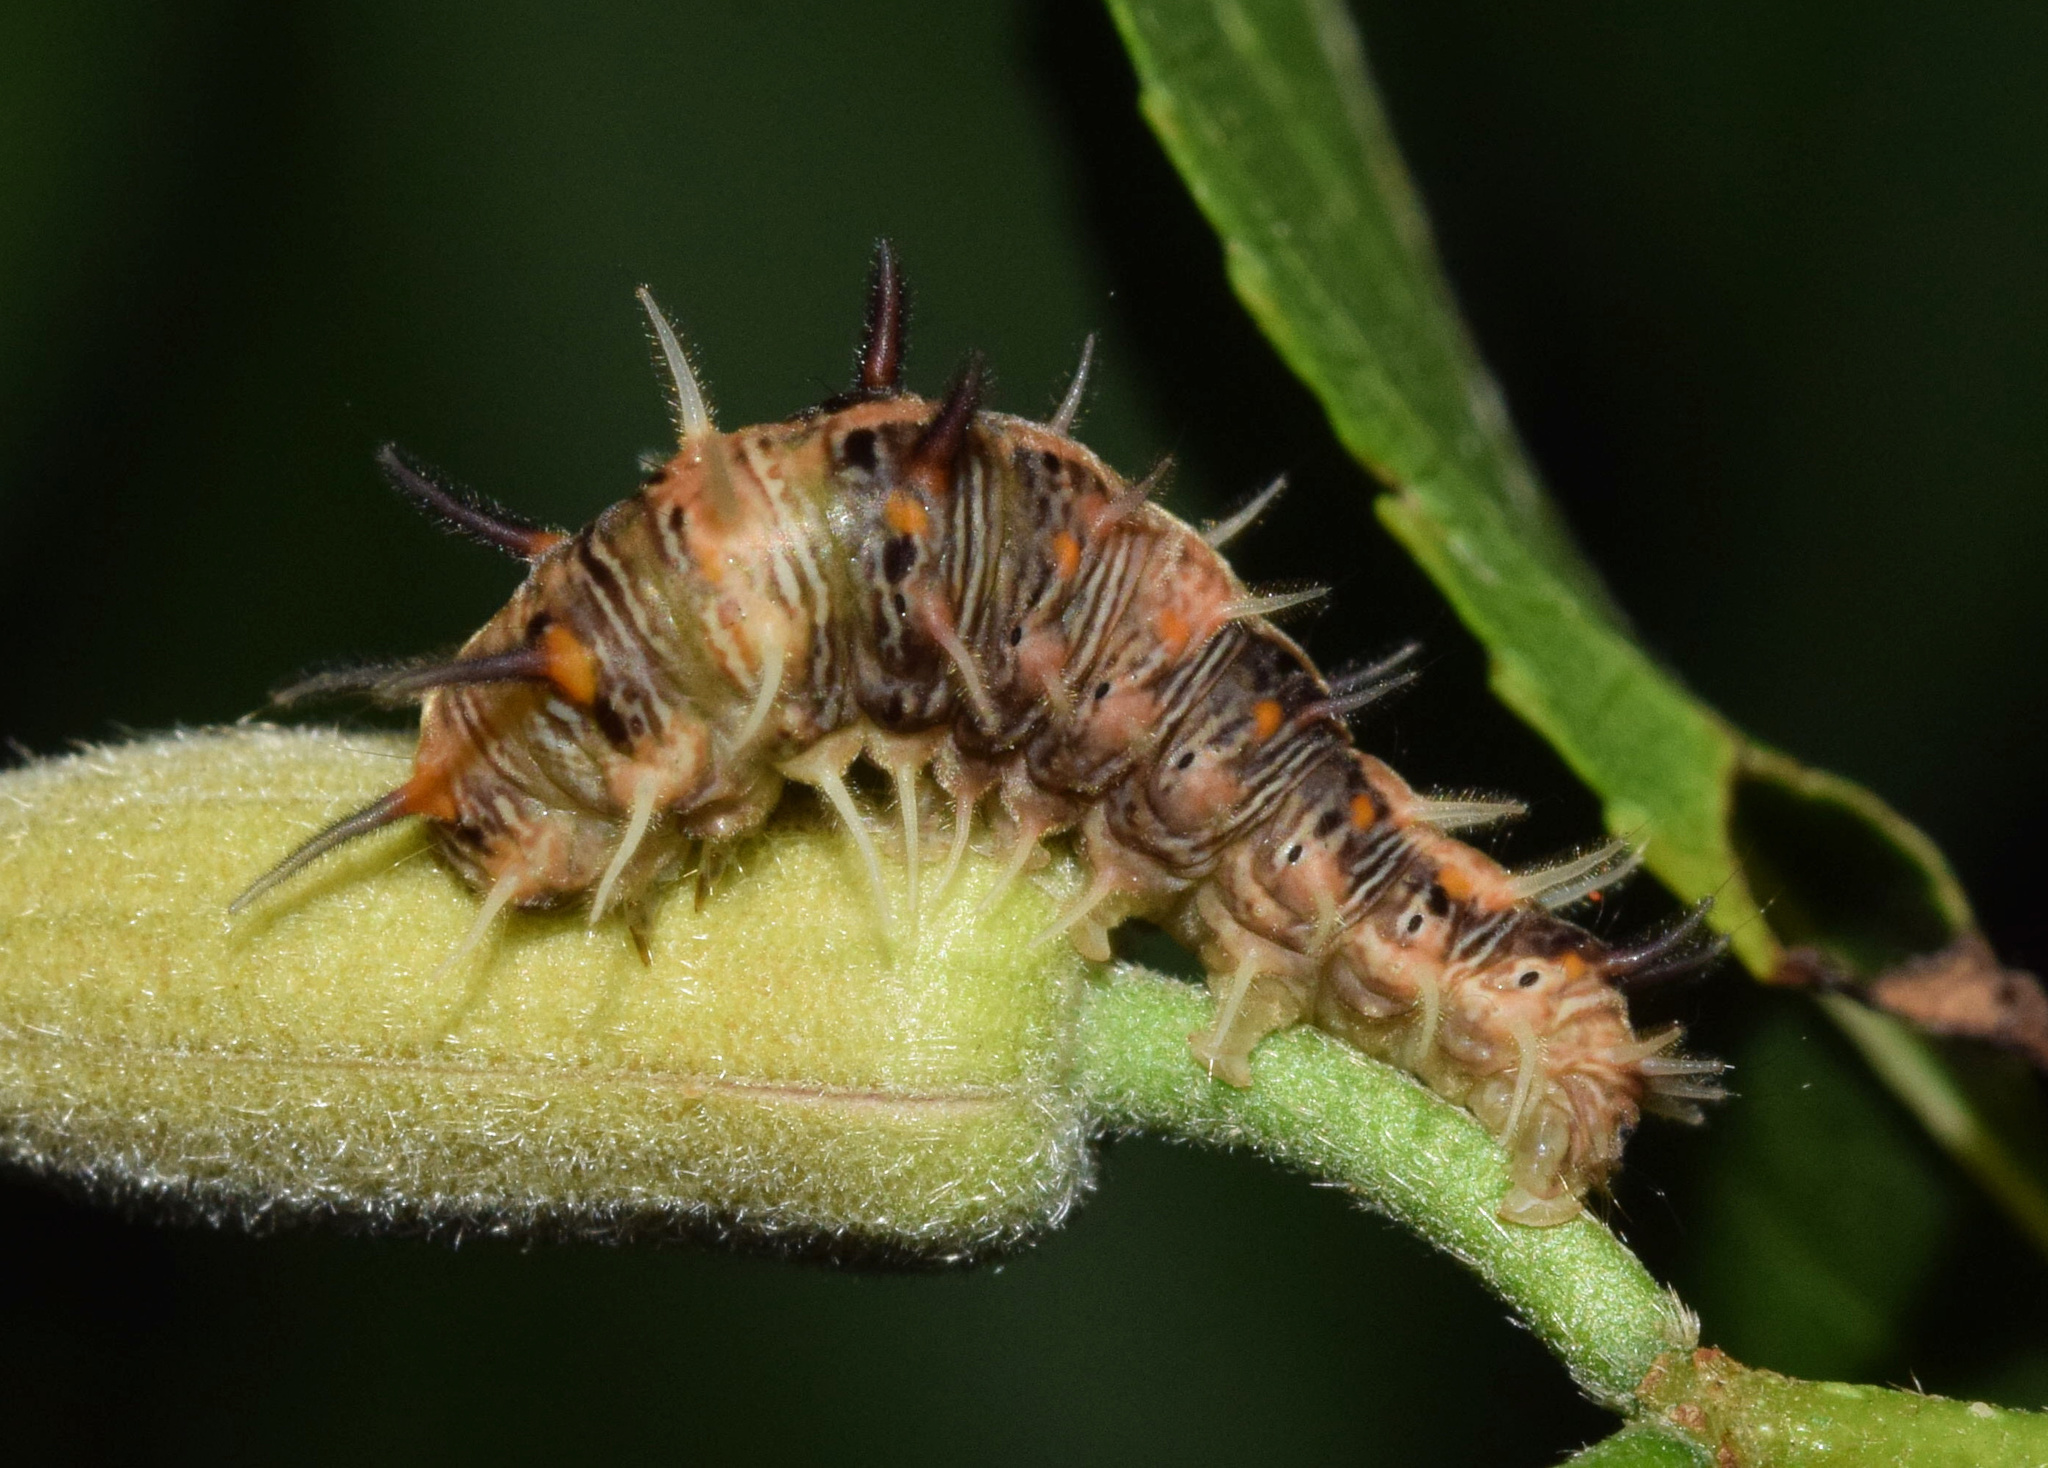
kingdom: Animalia
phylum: Arthropoda
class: Insecta
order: Lepidoptera
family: Nolidae
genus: Earias
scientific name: Earias biplaga
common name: Spiny bollworm
